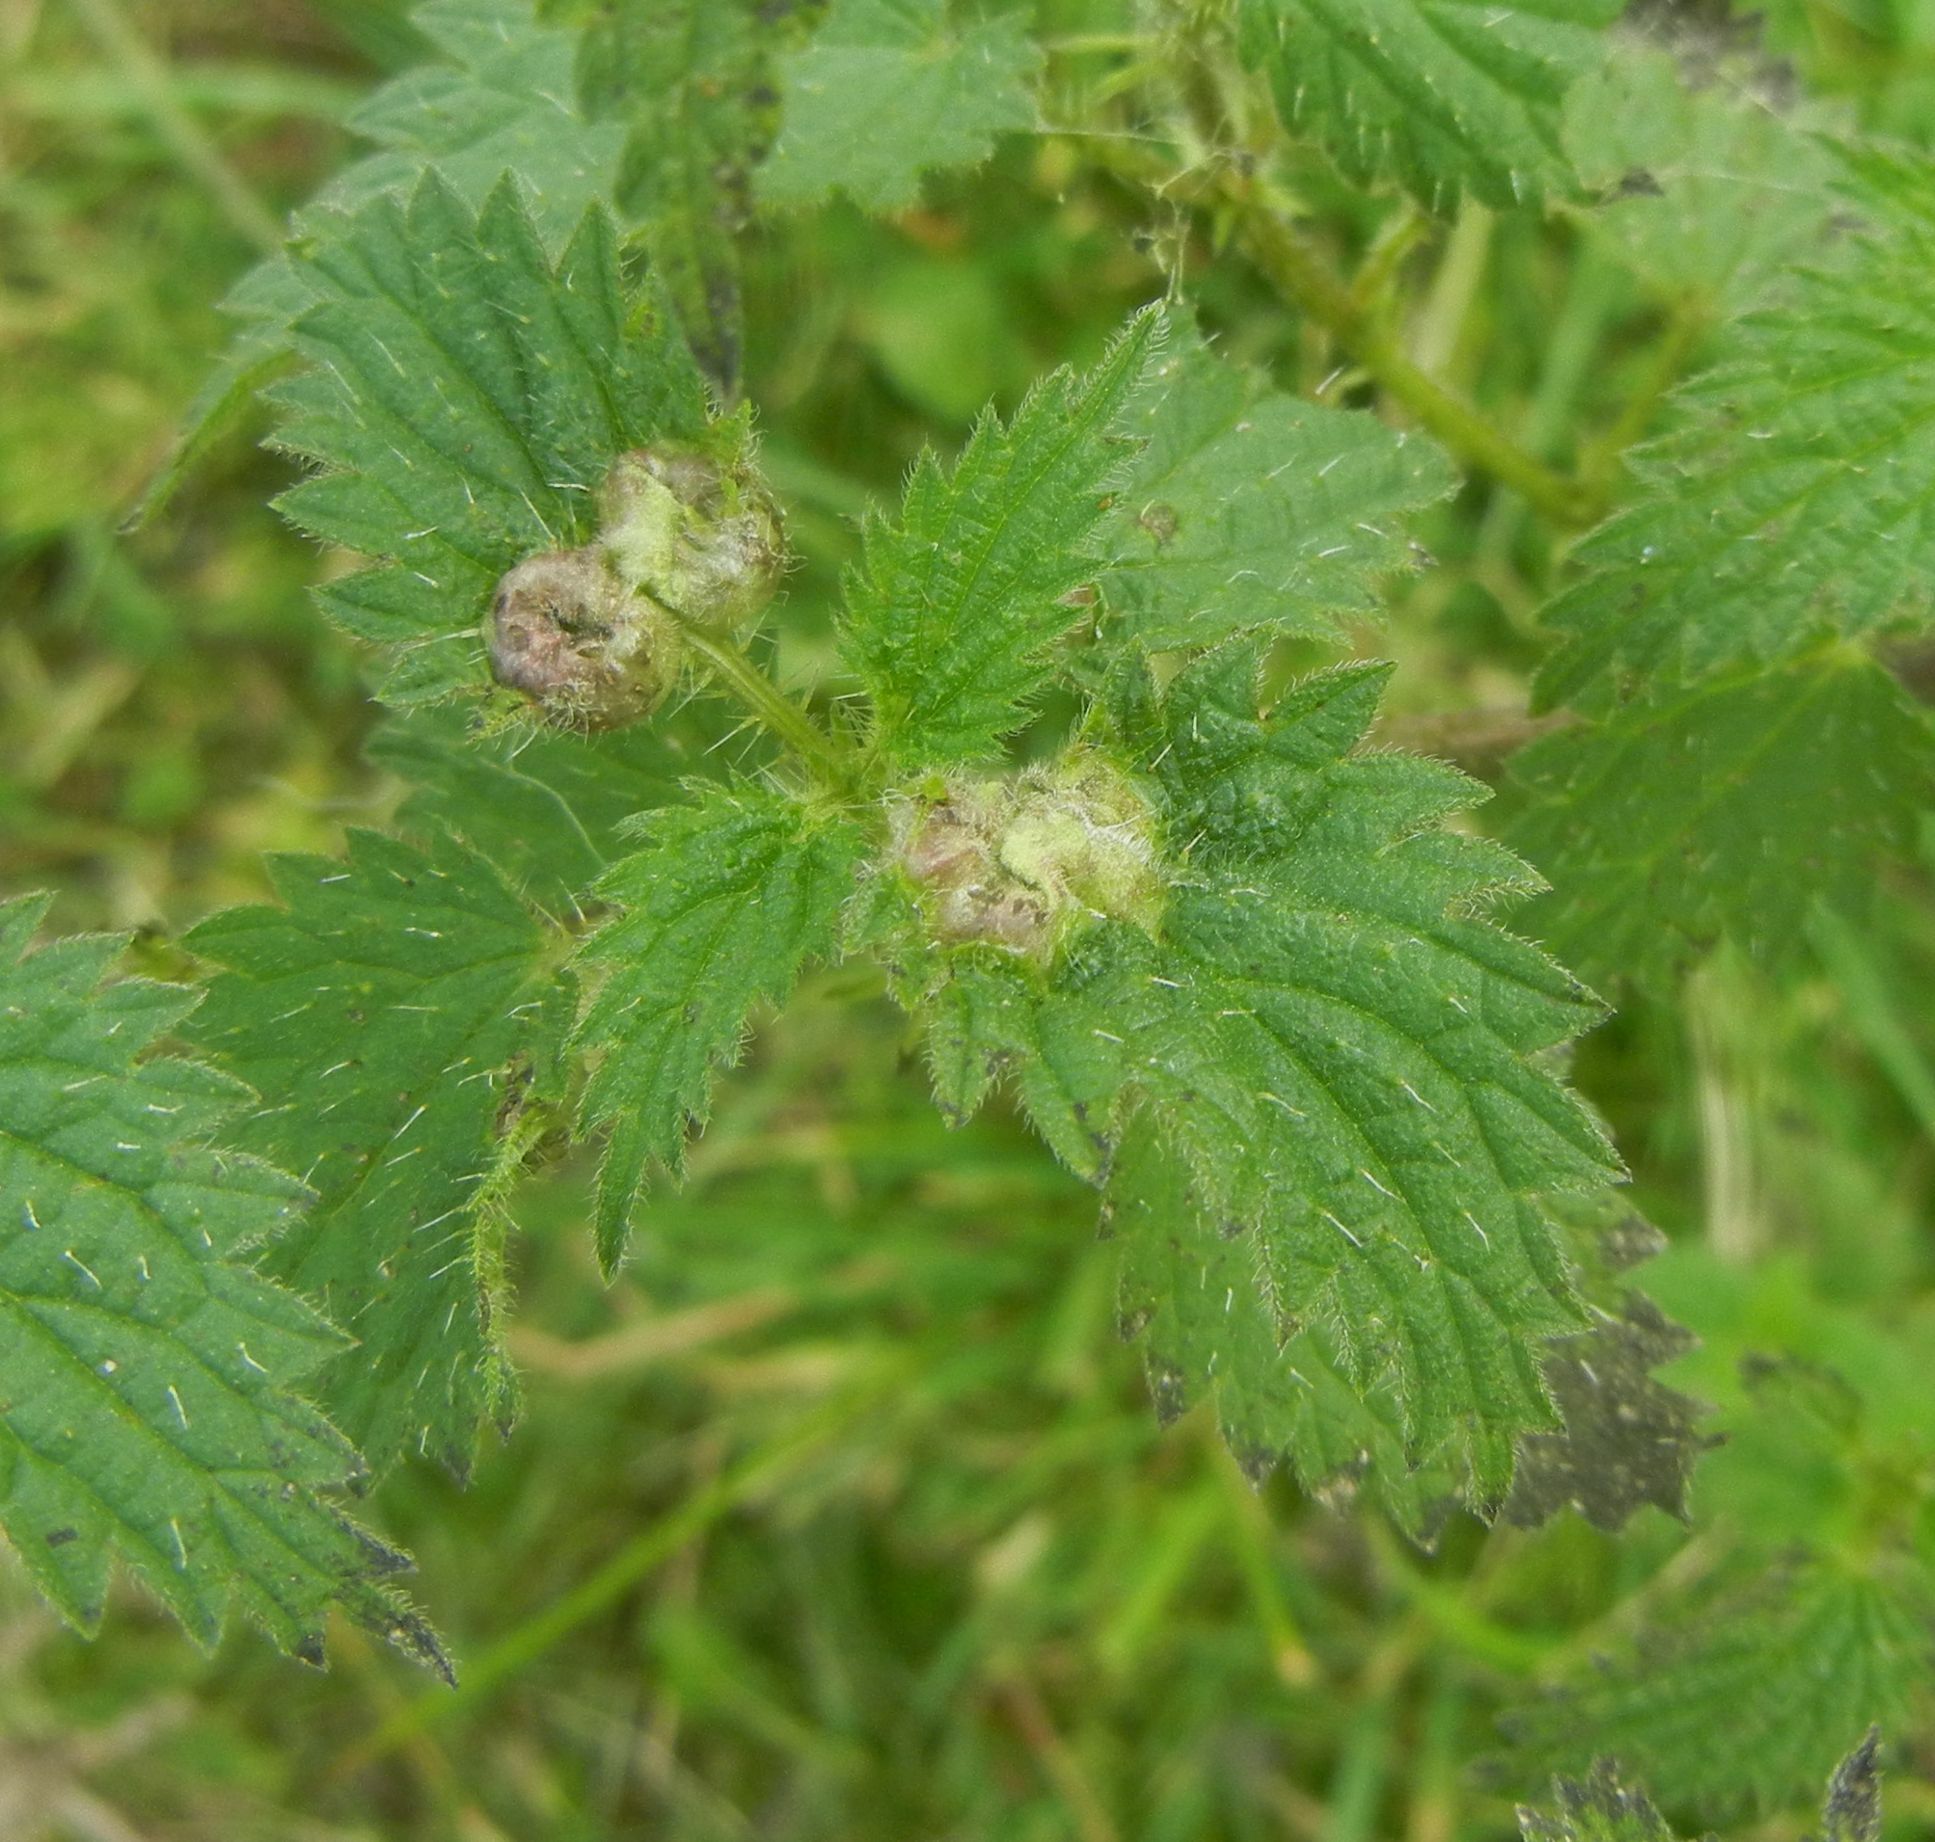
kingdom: Animalia
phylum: Arthropoda
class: Insecta
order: Diptera
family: Cecidomyiidae
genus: Dasineura
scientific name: Dasineura urticae
